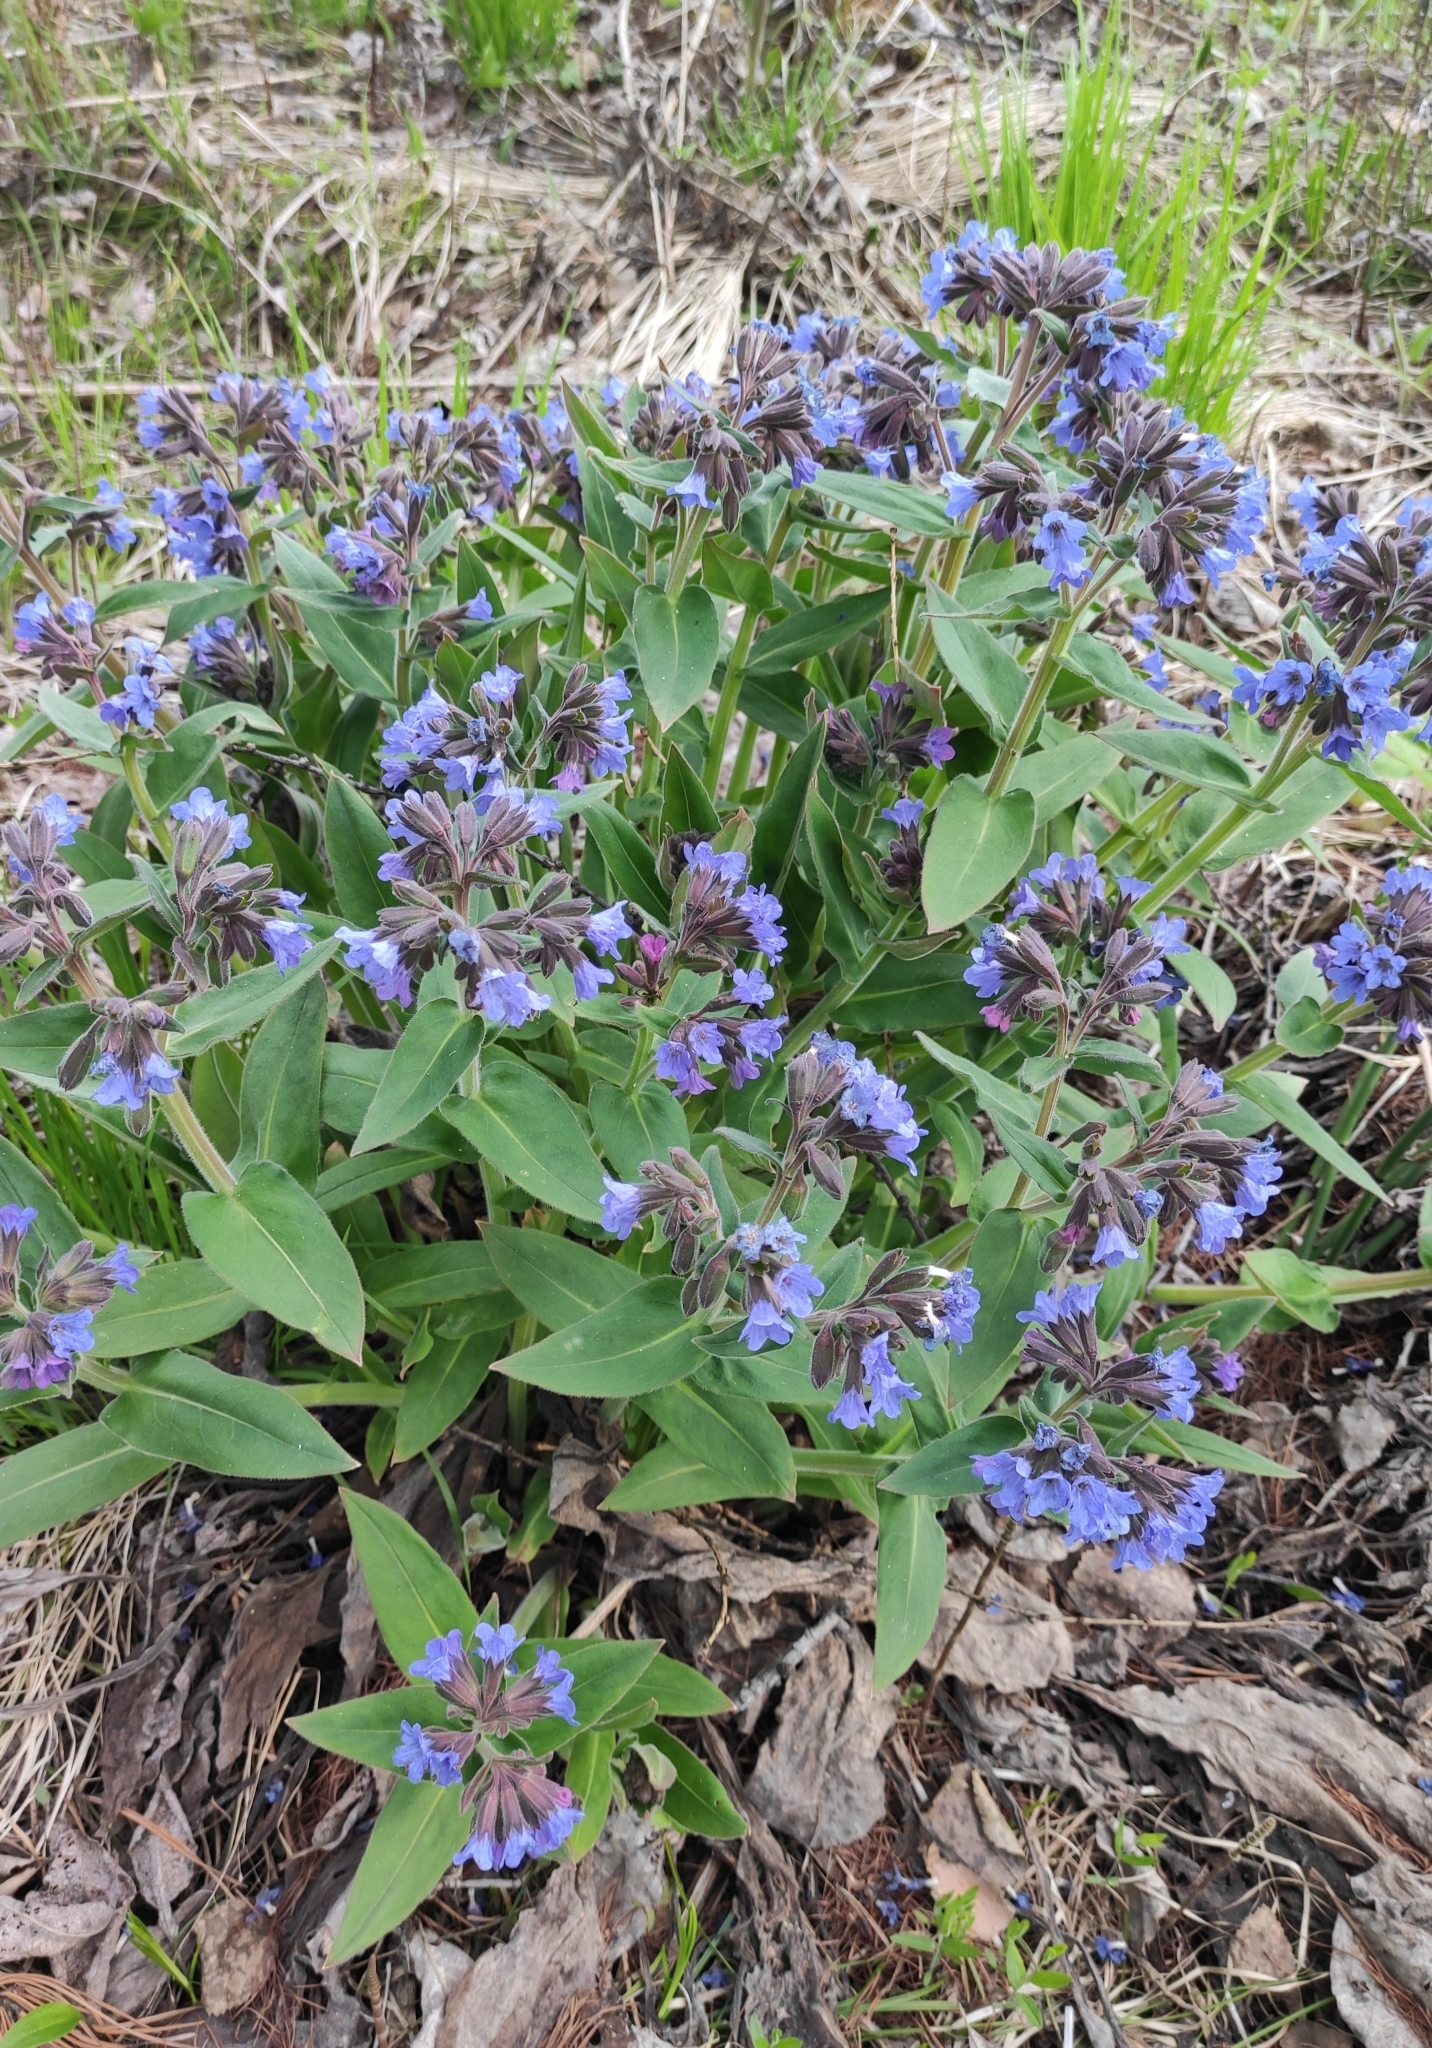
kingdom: Plantae
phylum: Tracheophyta
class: Magnoliopsida
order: Boraginales
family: Boraginaceae
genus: Pulmonaria
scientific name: Pulmonaria mollis
